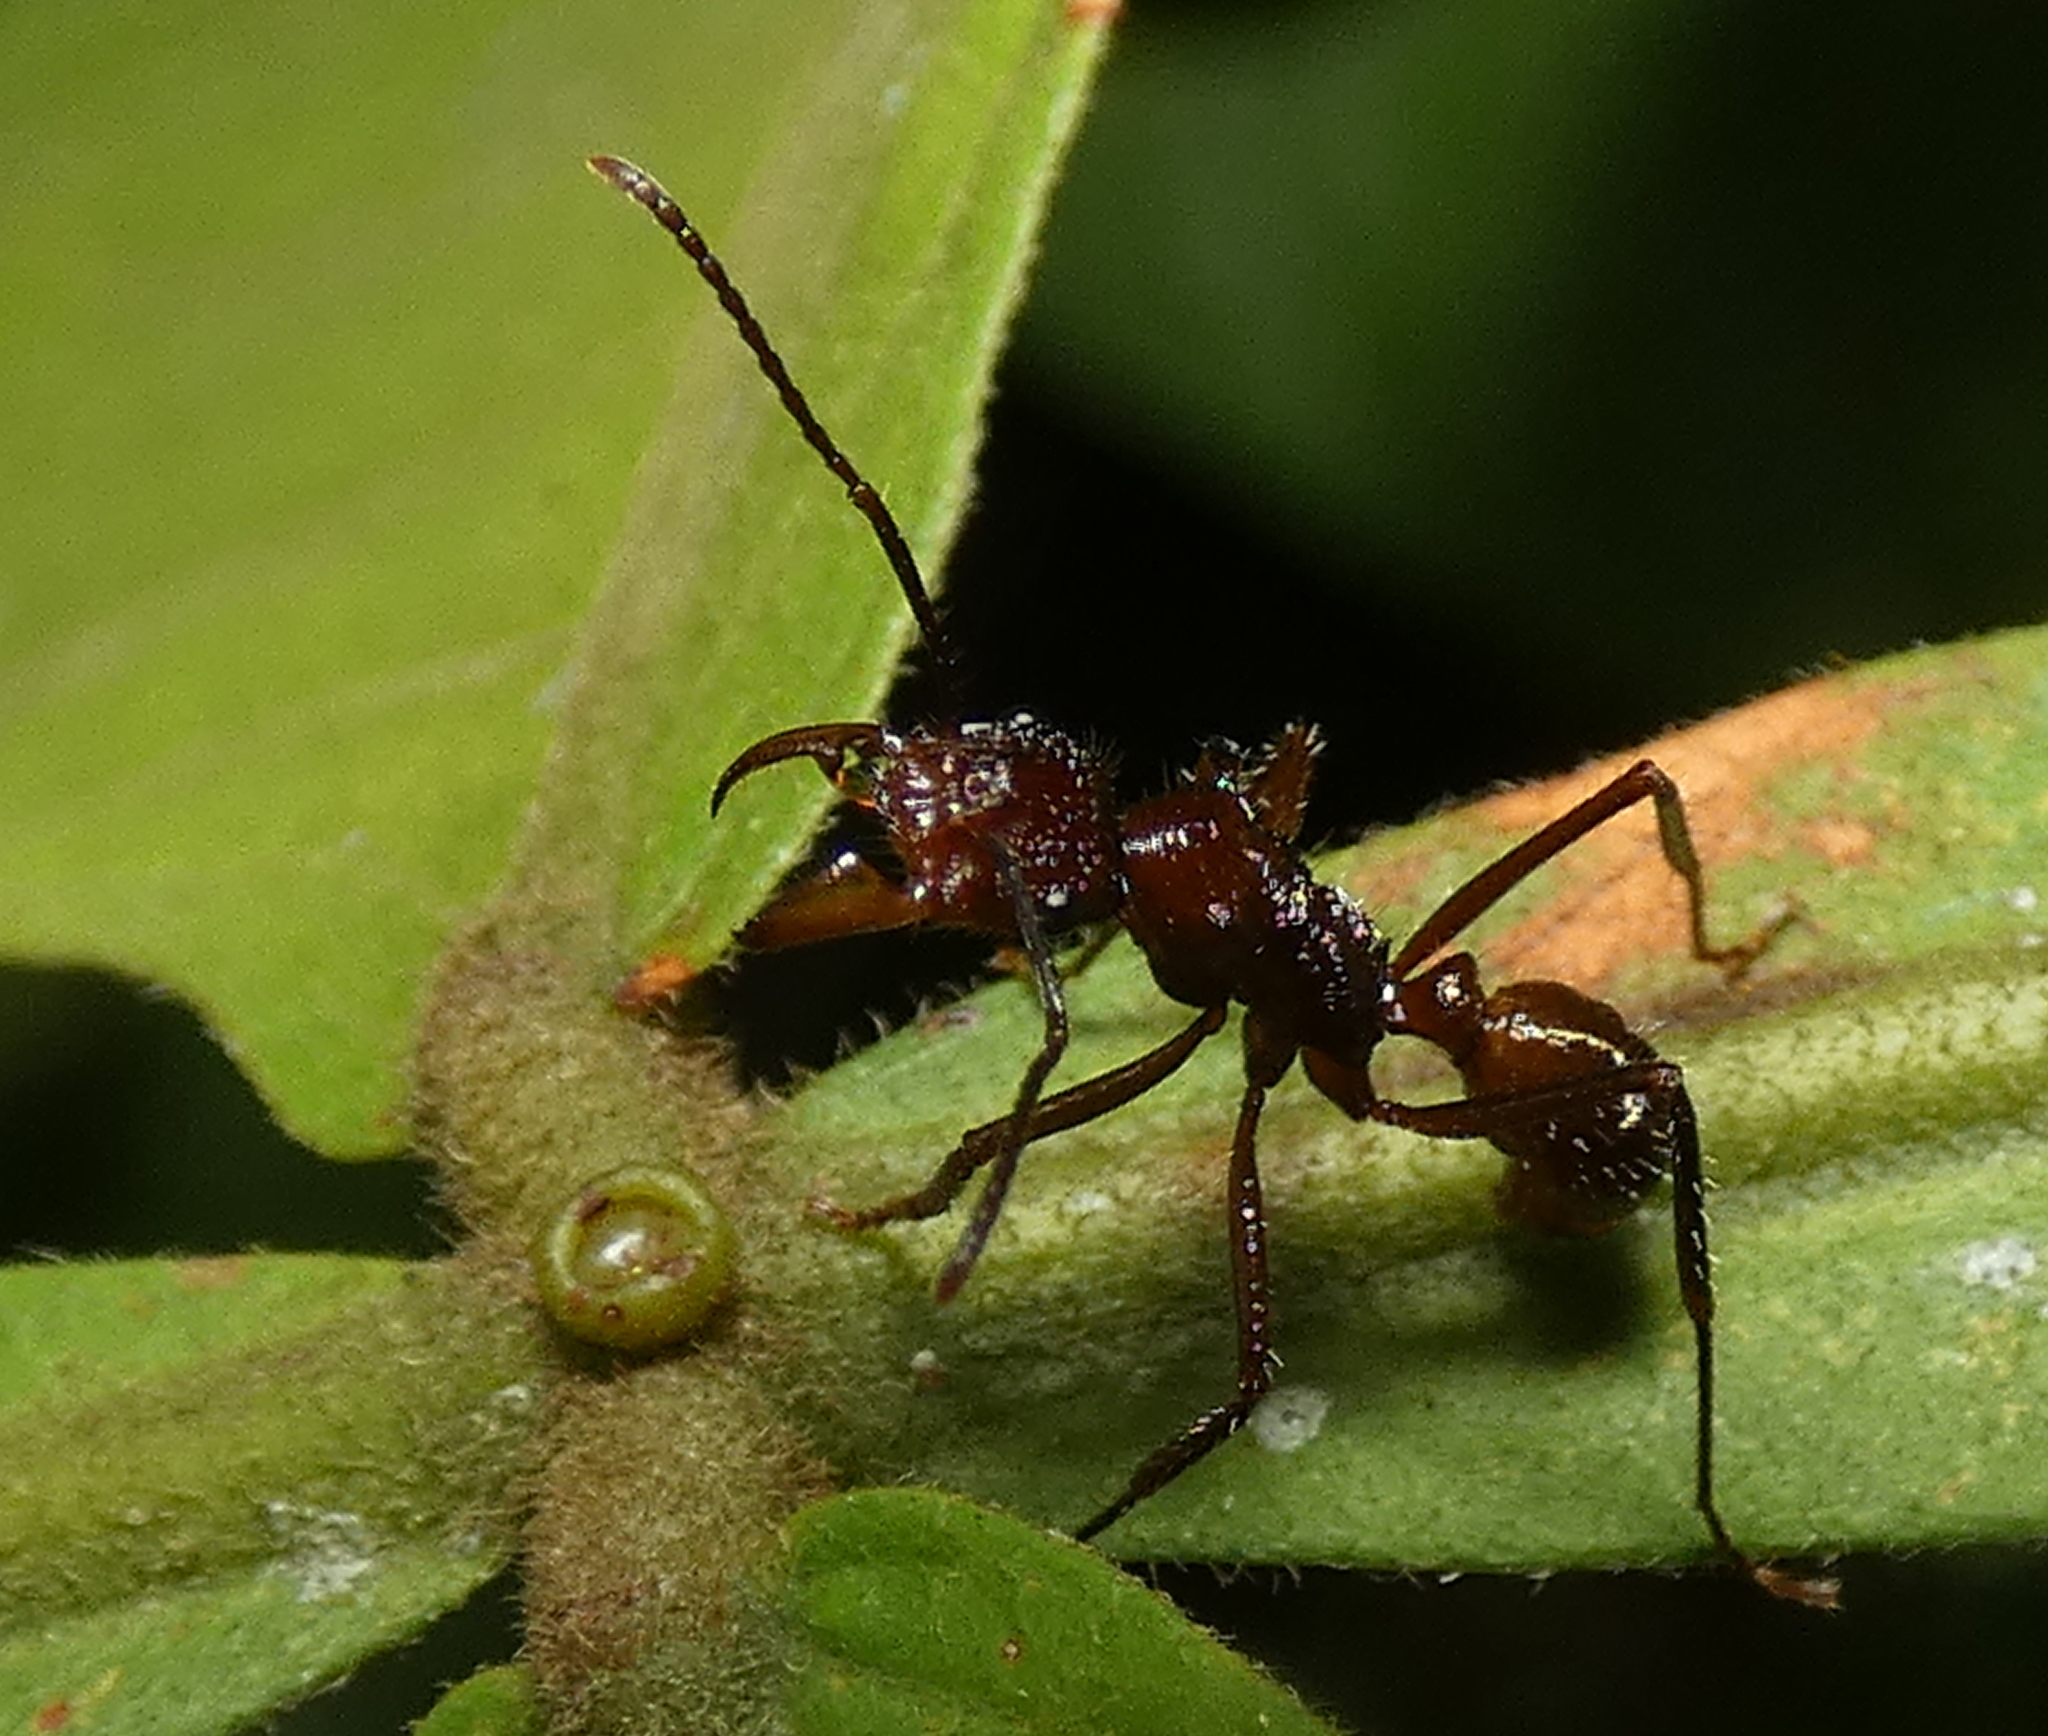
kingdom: Animalia
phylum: Arthropoda
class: Insecta
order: Hymenoptera
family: Formicidae
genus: Ectatomma
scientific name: Ectatomma tuberculatum
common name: Ant
